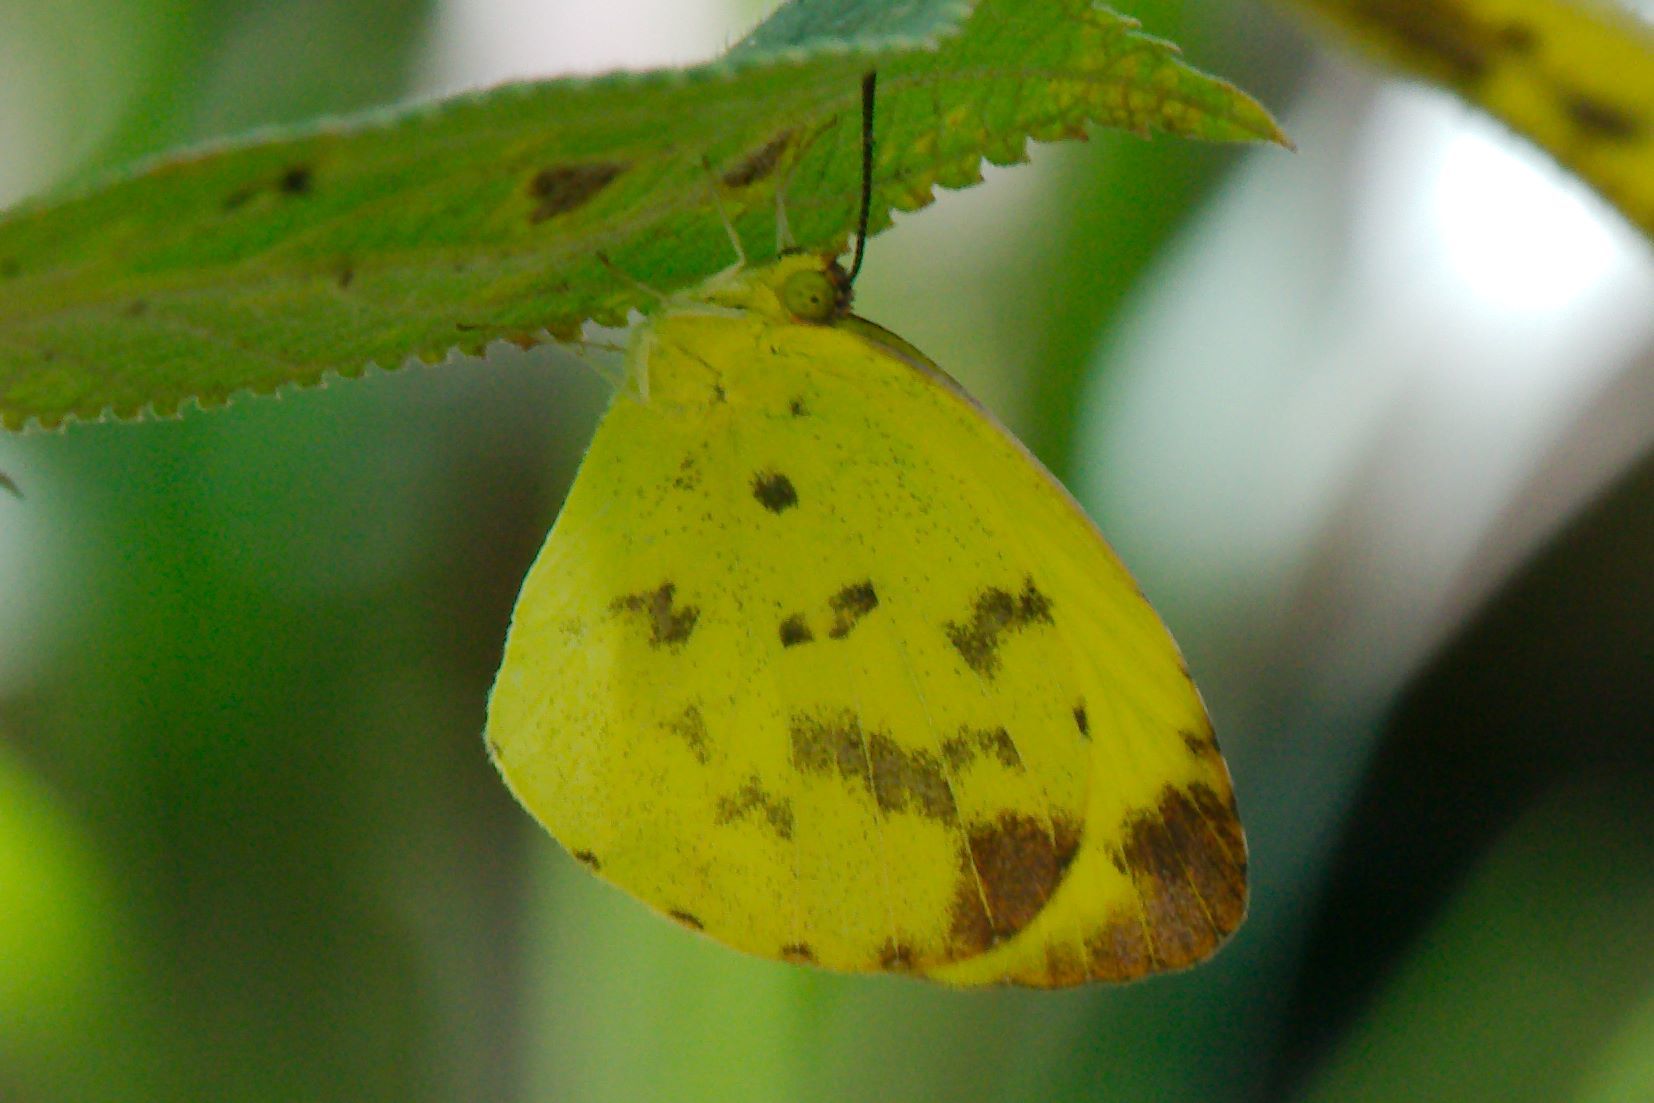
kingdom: Animalia
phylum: Arthropoda
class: Insecta
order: Lepidoptera
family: Pieridae
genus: Pyrisitia
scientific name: Pyrisitia dina
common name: Dina yellow
